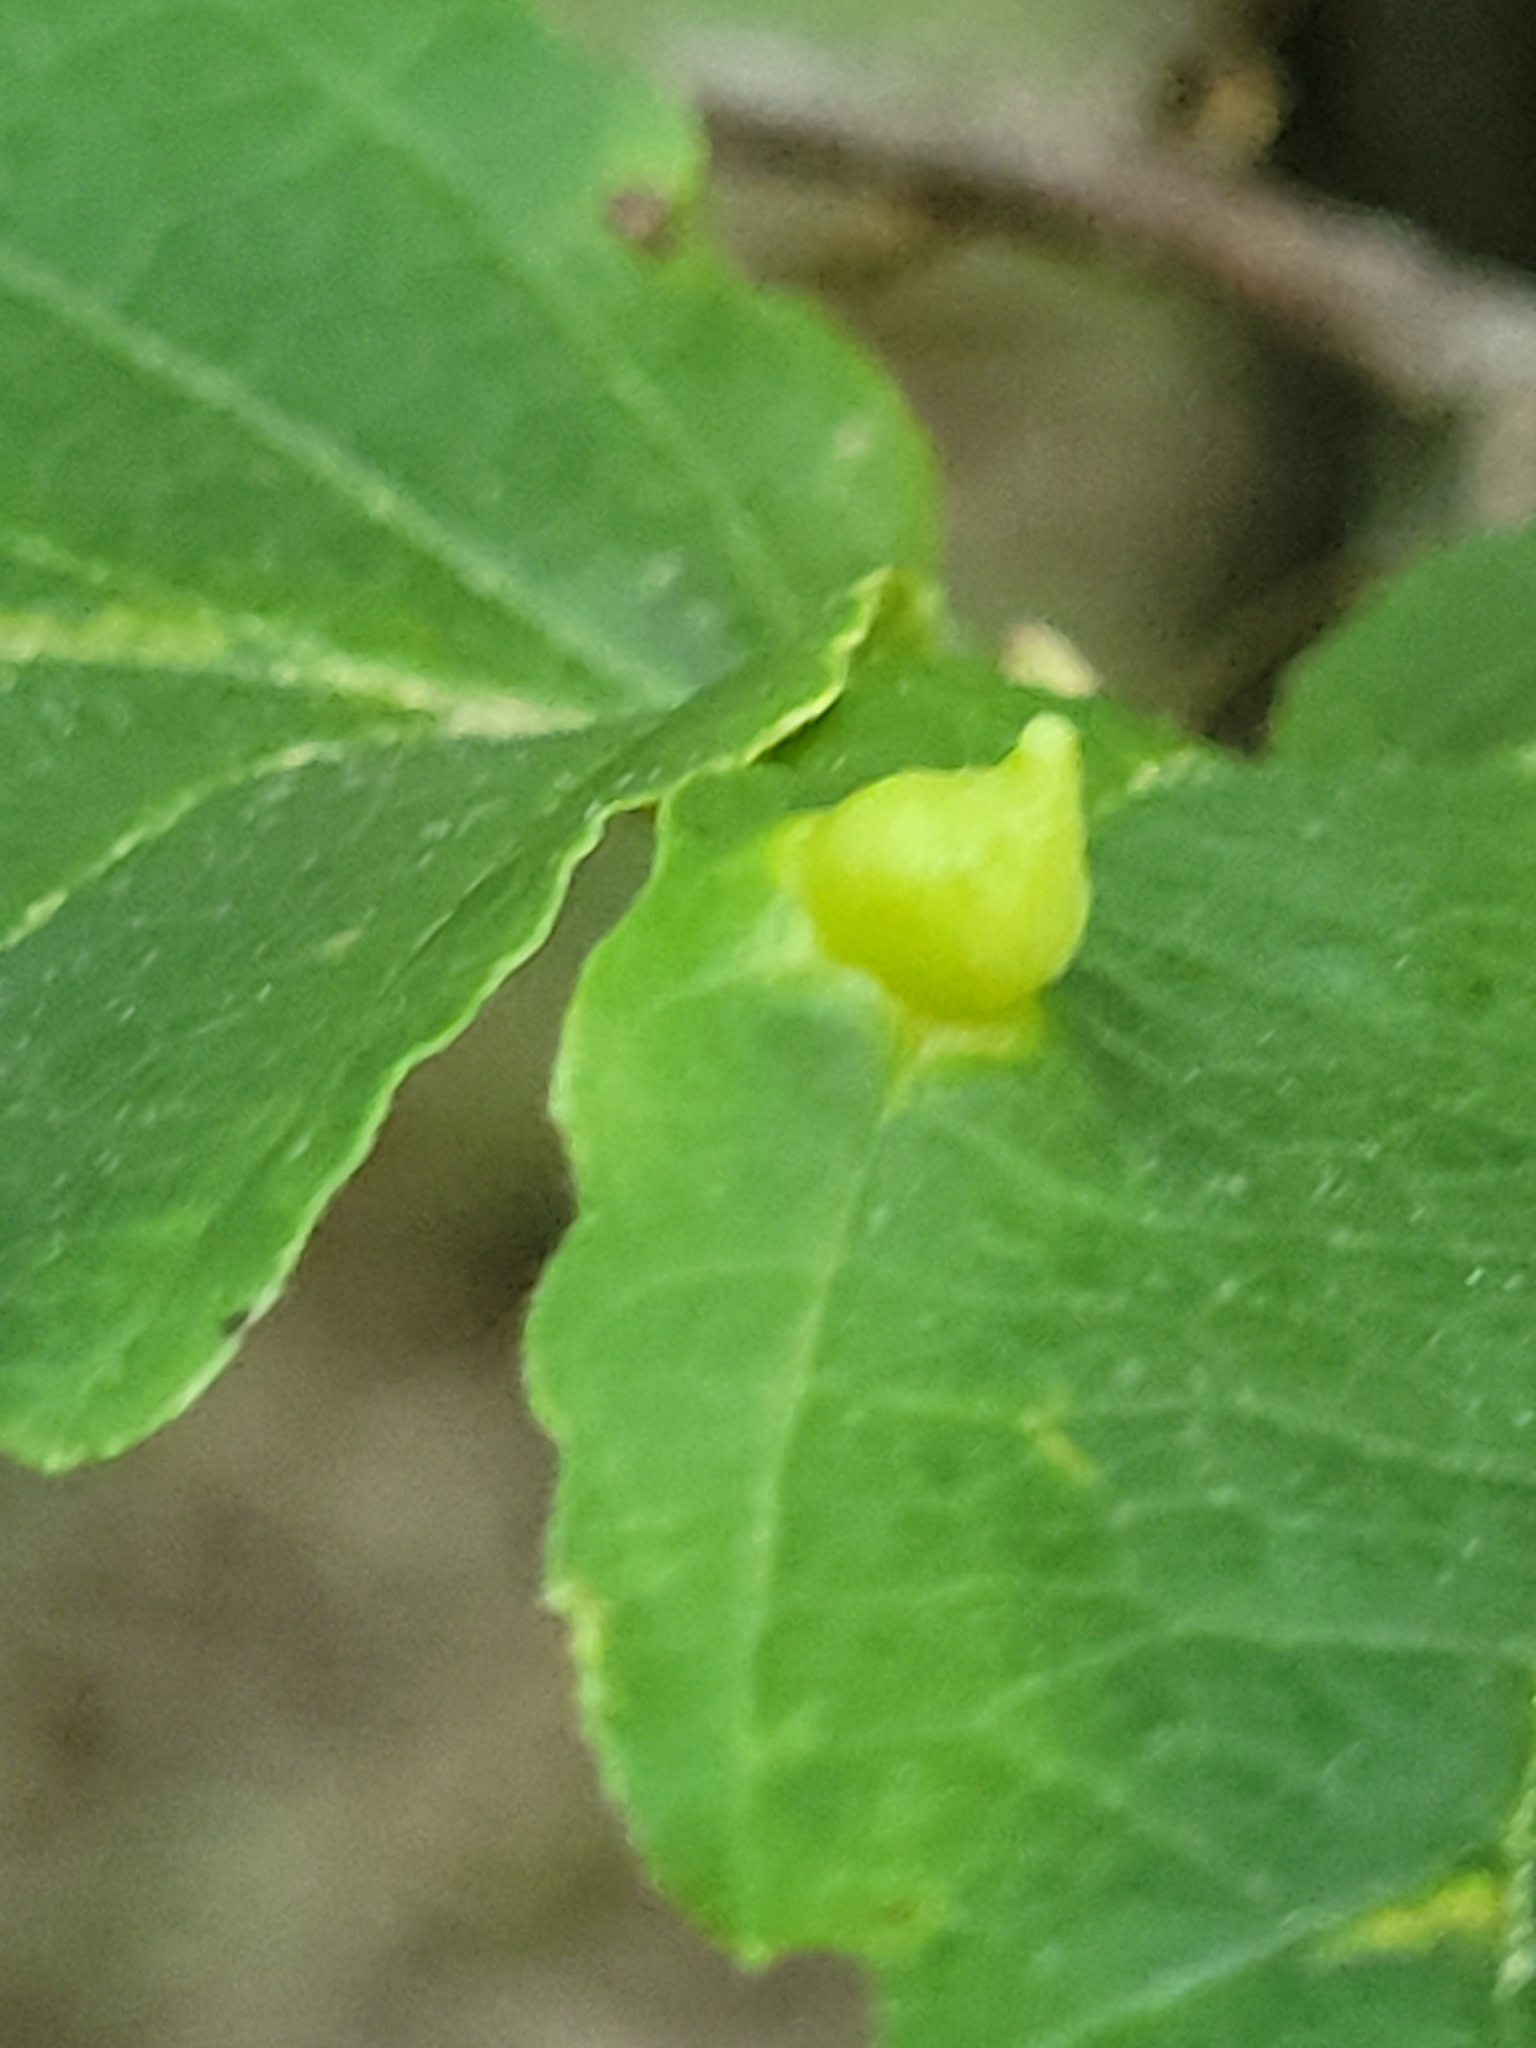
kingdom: Animalia
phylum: Arthropoda
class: Insecta
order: Hemiptera
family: Aphididae
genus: Hormaphis
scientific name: Hormaphis hamamelidis
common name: Witch-hazel cone gall aphid
